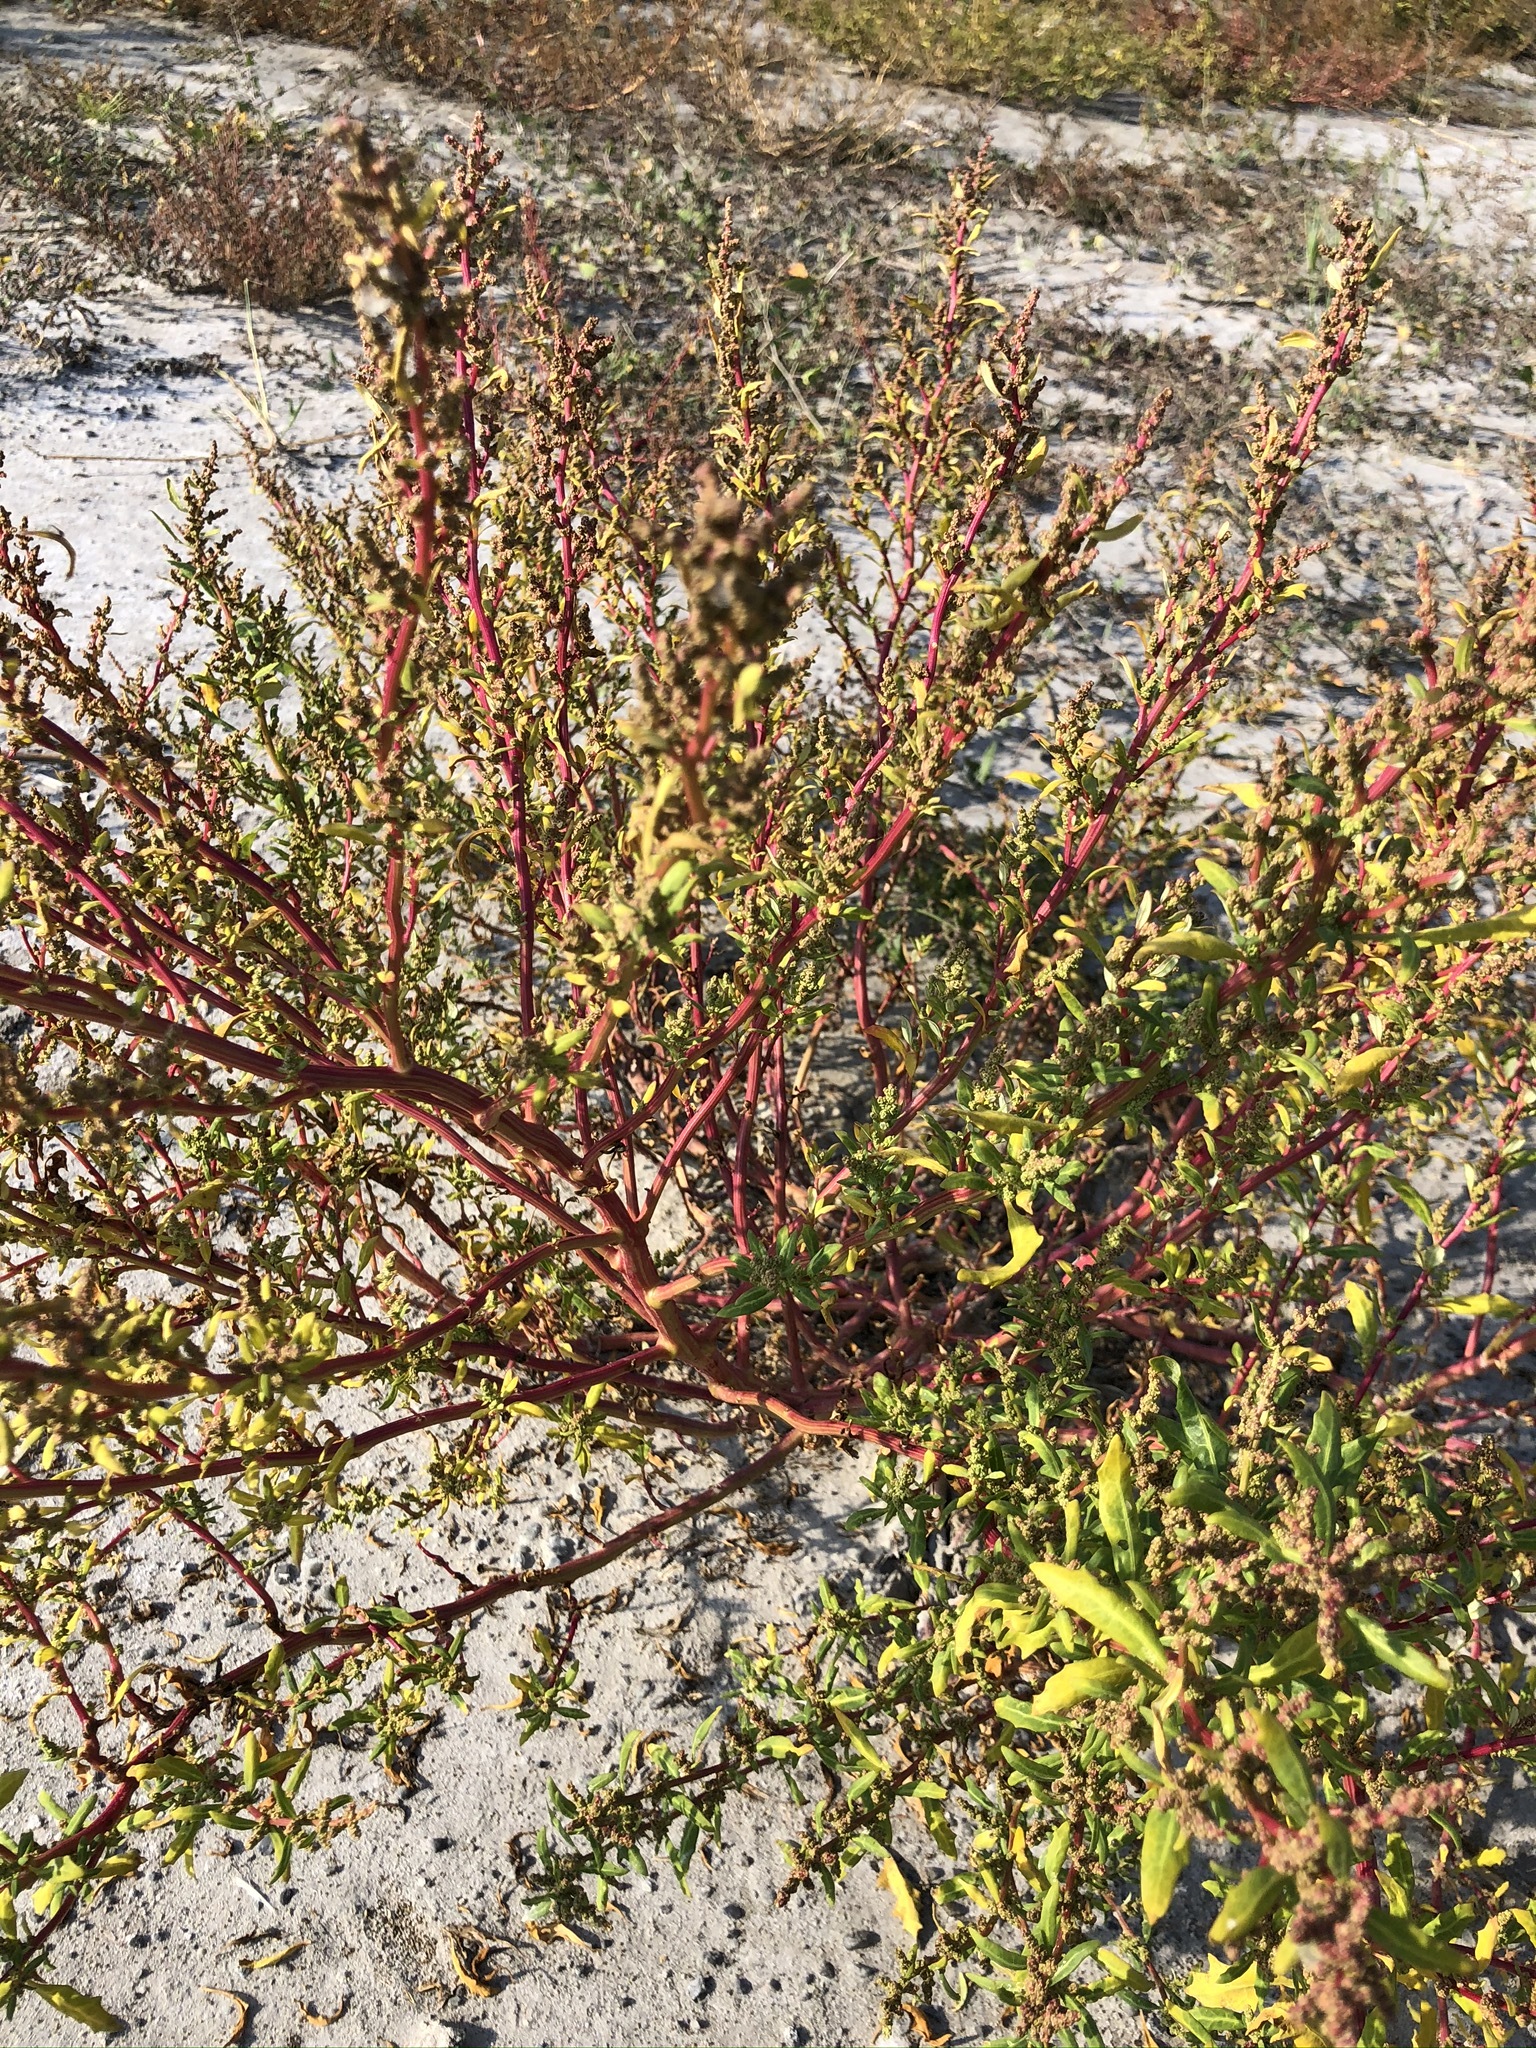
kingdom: Plantae
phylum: Tracheophyta
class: Magnoliopsida
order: Caryophyllales
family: Amaranthaceae
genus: Oxybasis
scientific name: Oxybasis glauca
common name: Glaucous goosefoot
